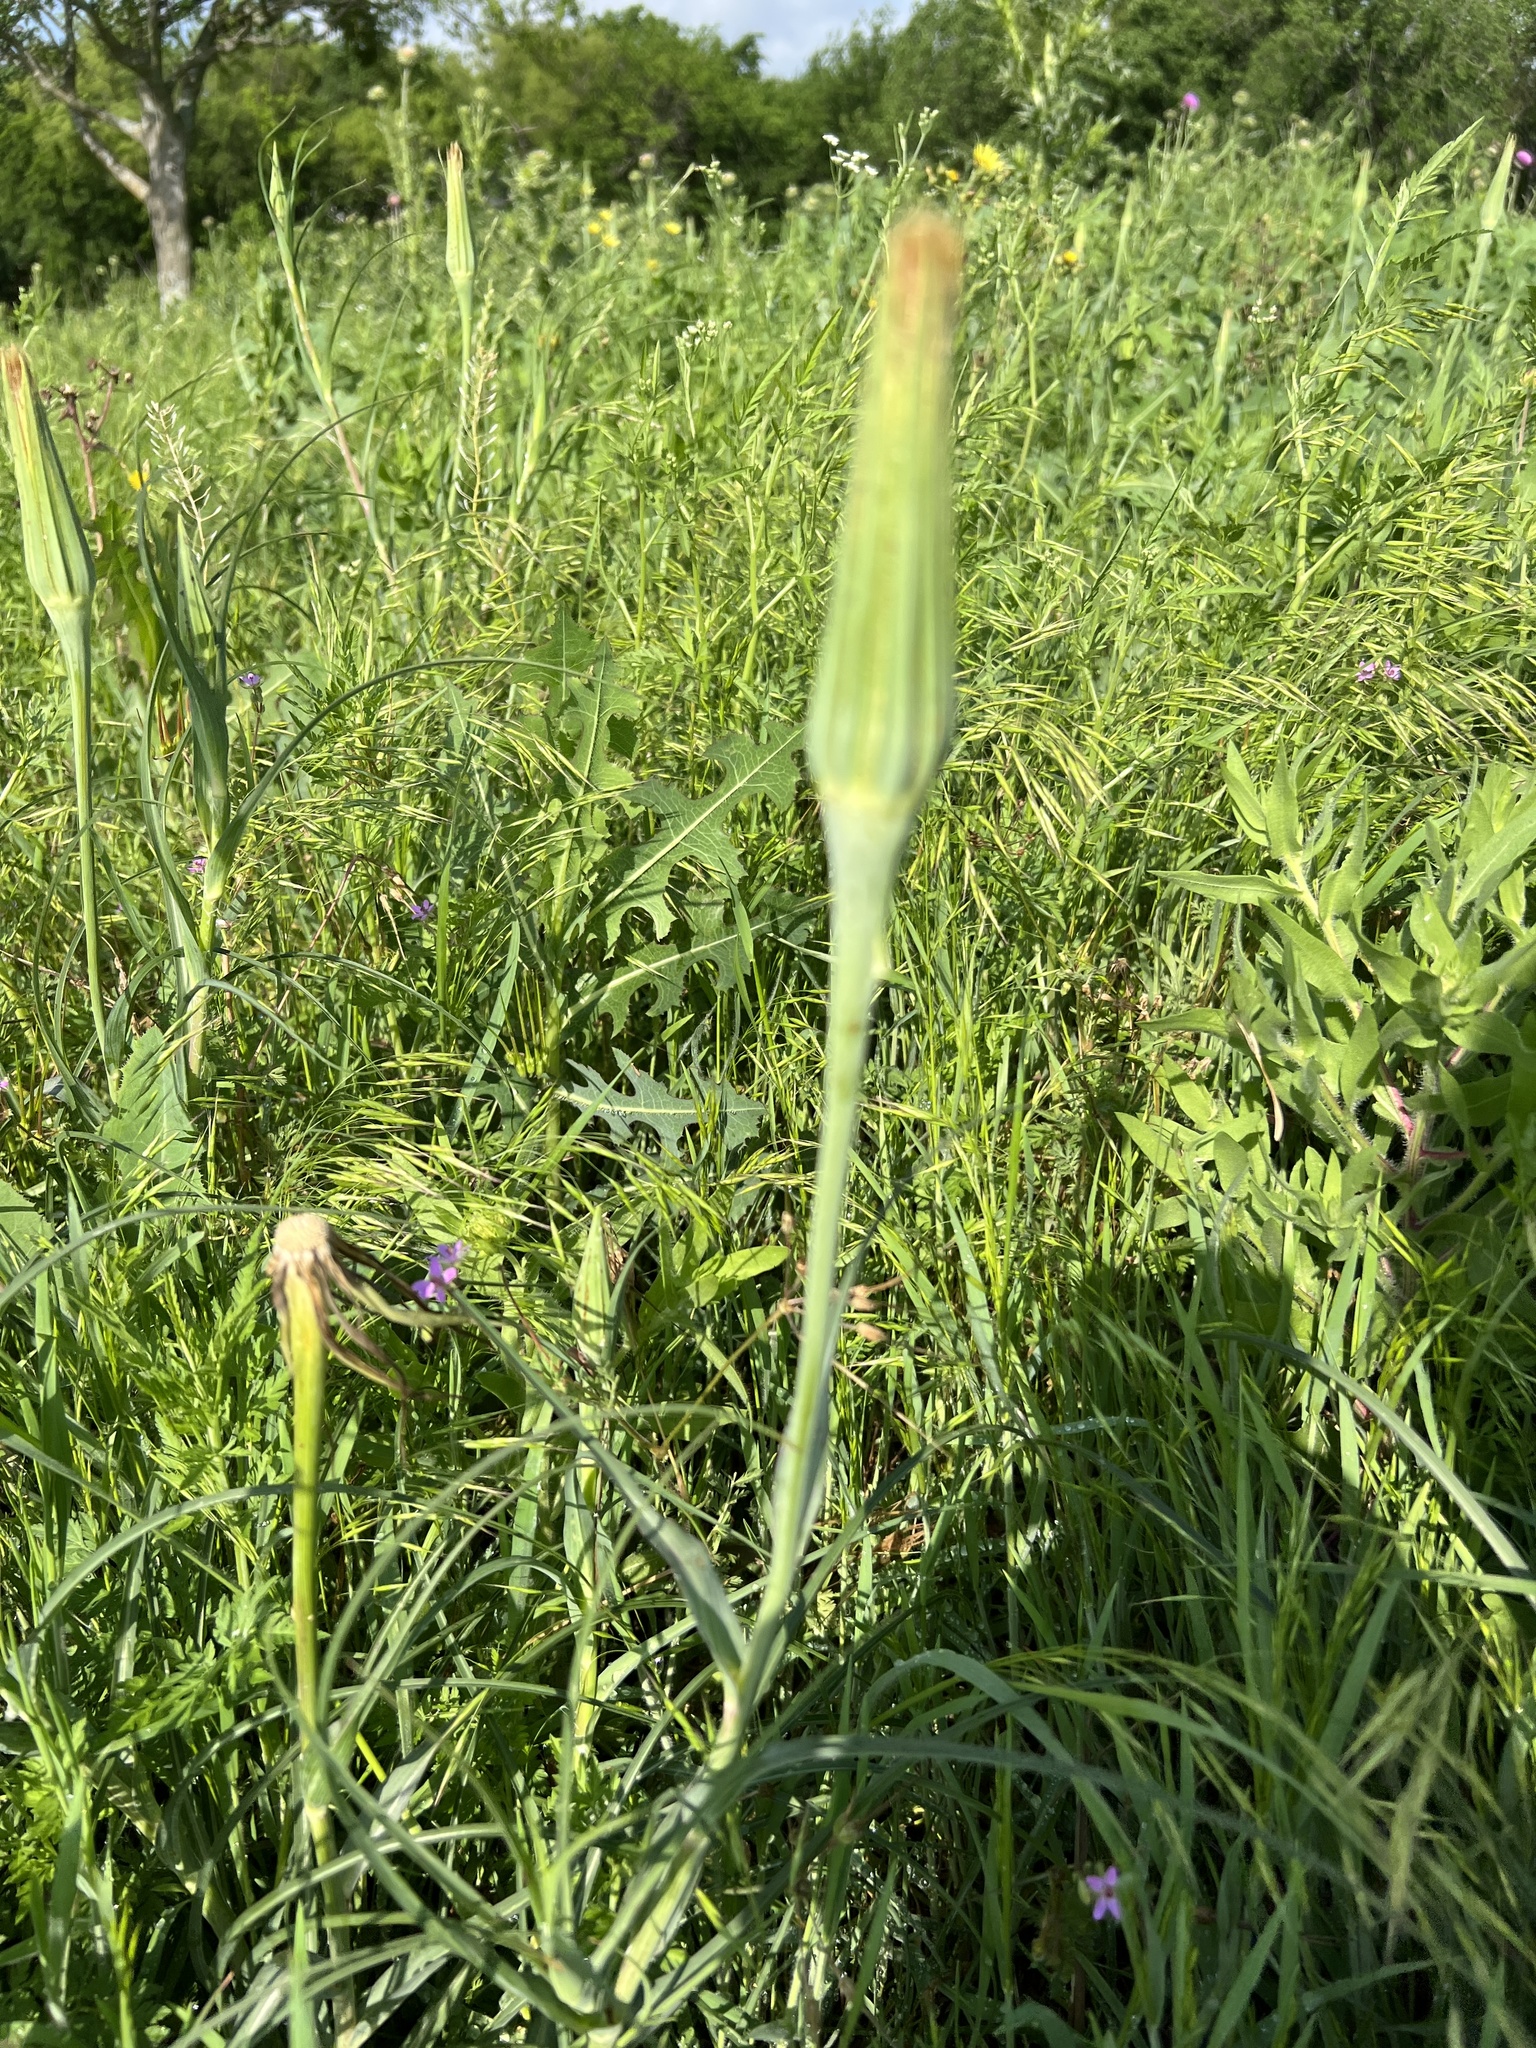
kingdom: Plantae
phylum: Tracheophyta
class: Magnoliopsida
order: Asterales
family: Asteraceae
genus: Tragopogon
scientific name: Tragopogon dubius
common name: Yellow salsify
